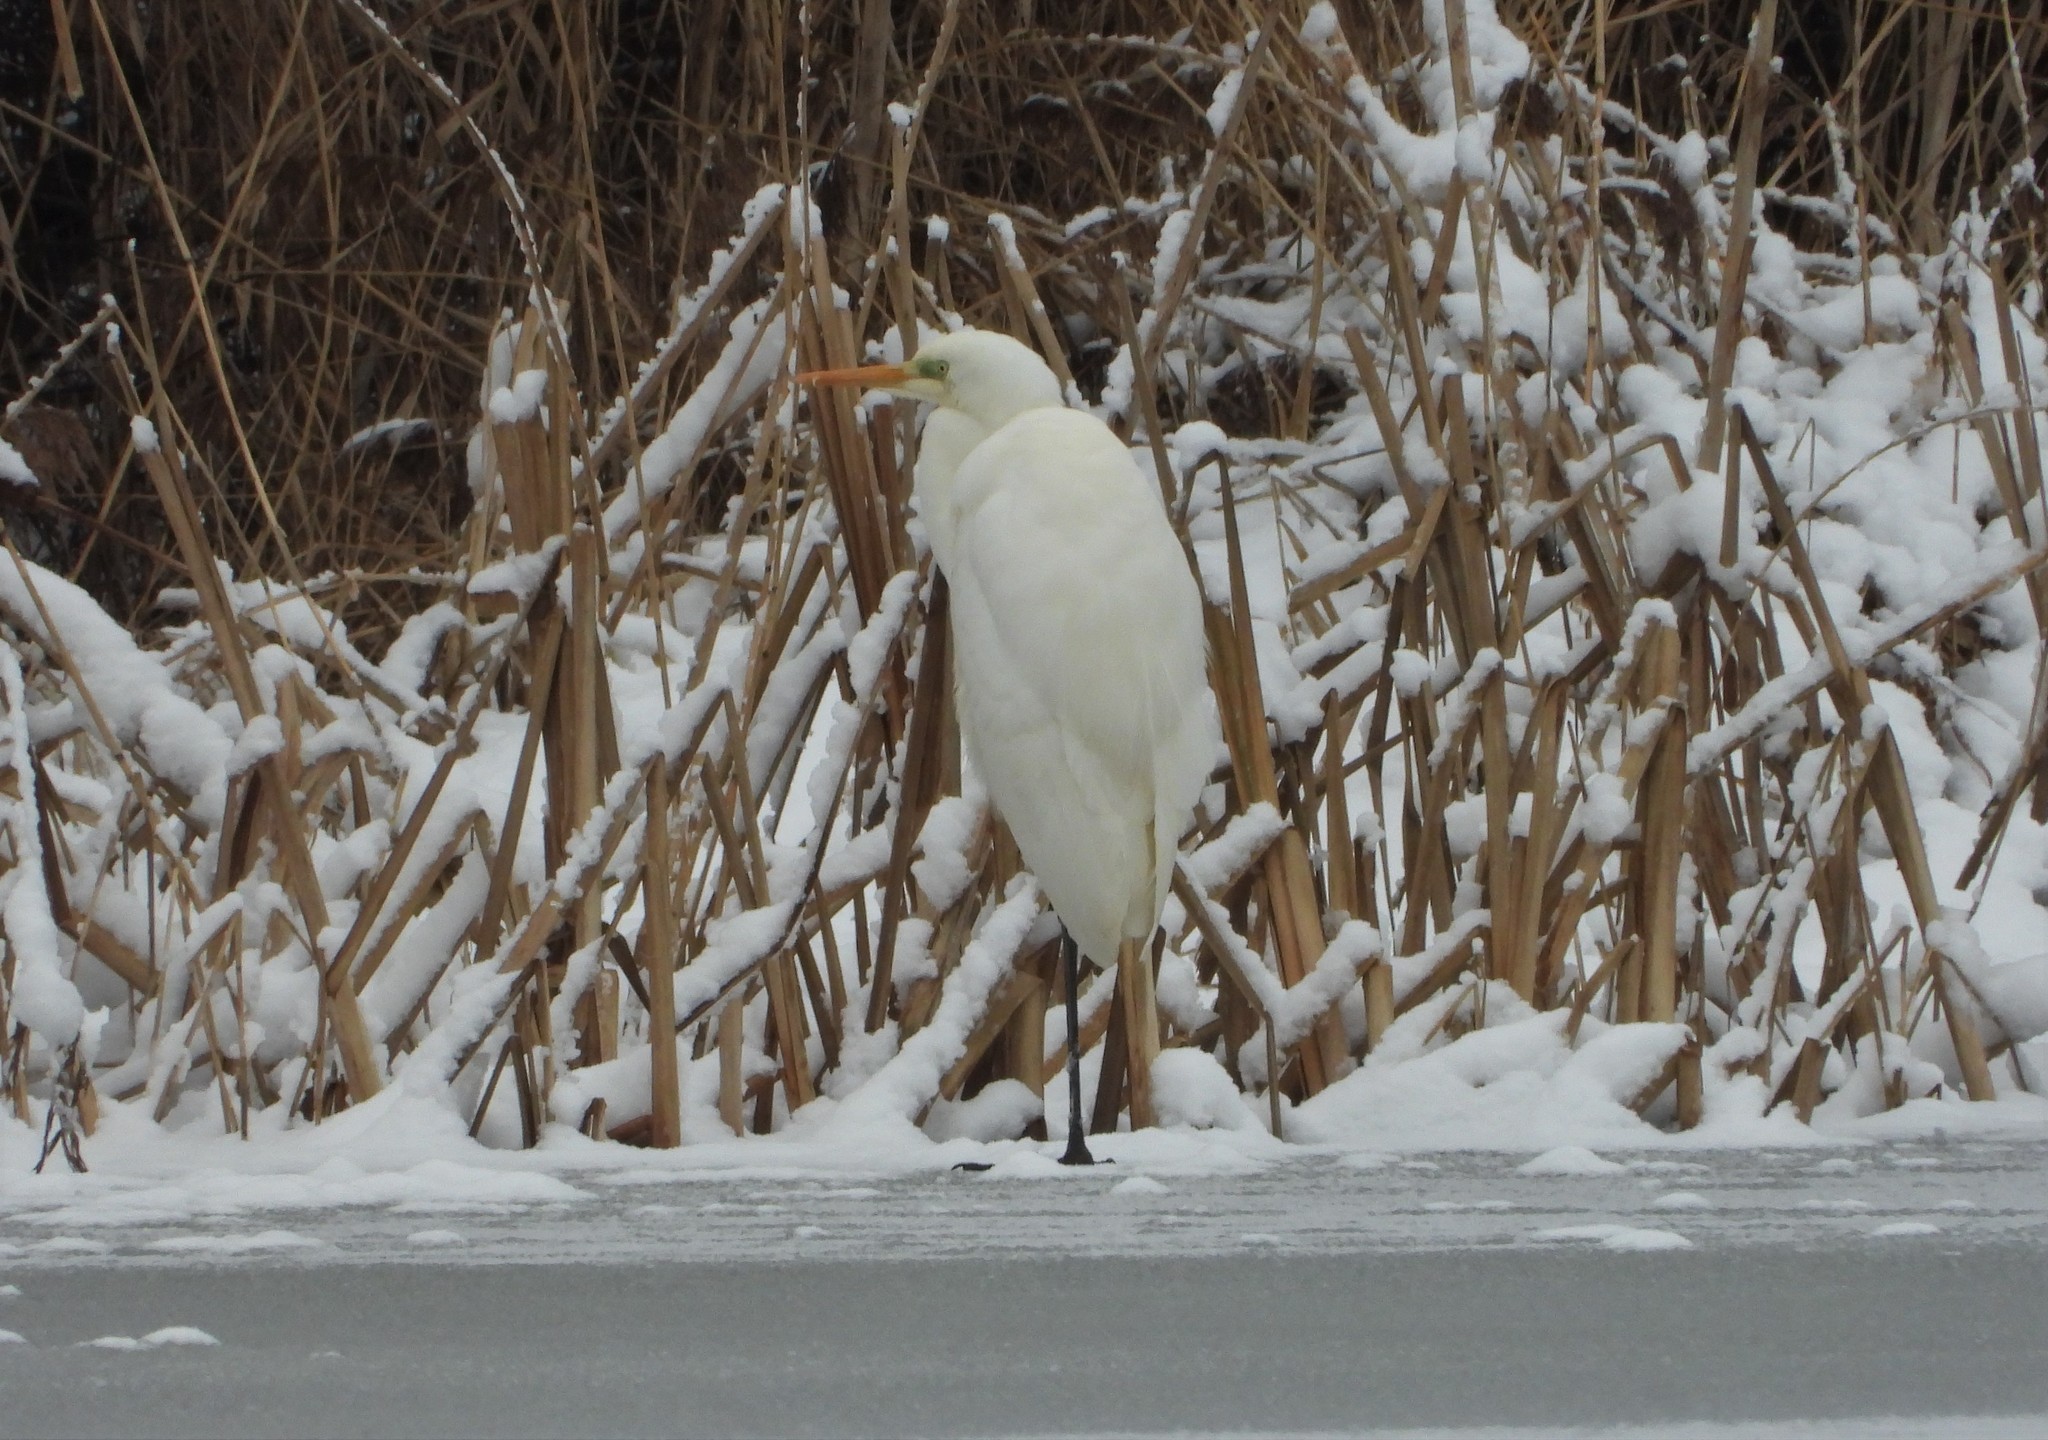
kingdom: Animalia
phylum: Chordata
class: Aves
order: Pelecaniformes
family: Ardeidae
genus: Ardea
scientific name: Ardea alba
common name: Great egret
